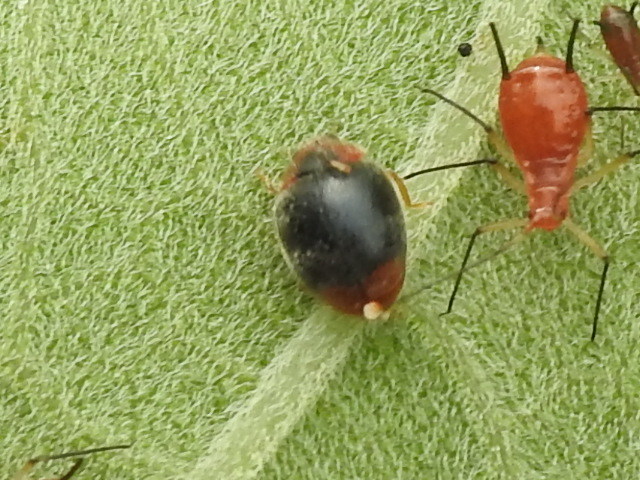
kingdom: Animalia
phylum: Arthropoda
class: Insecta
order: Coleoptera
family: Coccinellidae
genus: Scymnus
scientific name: Scymnus louisianae
